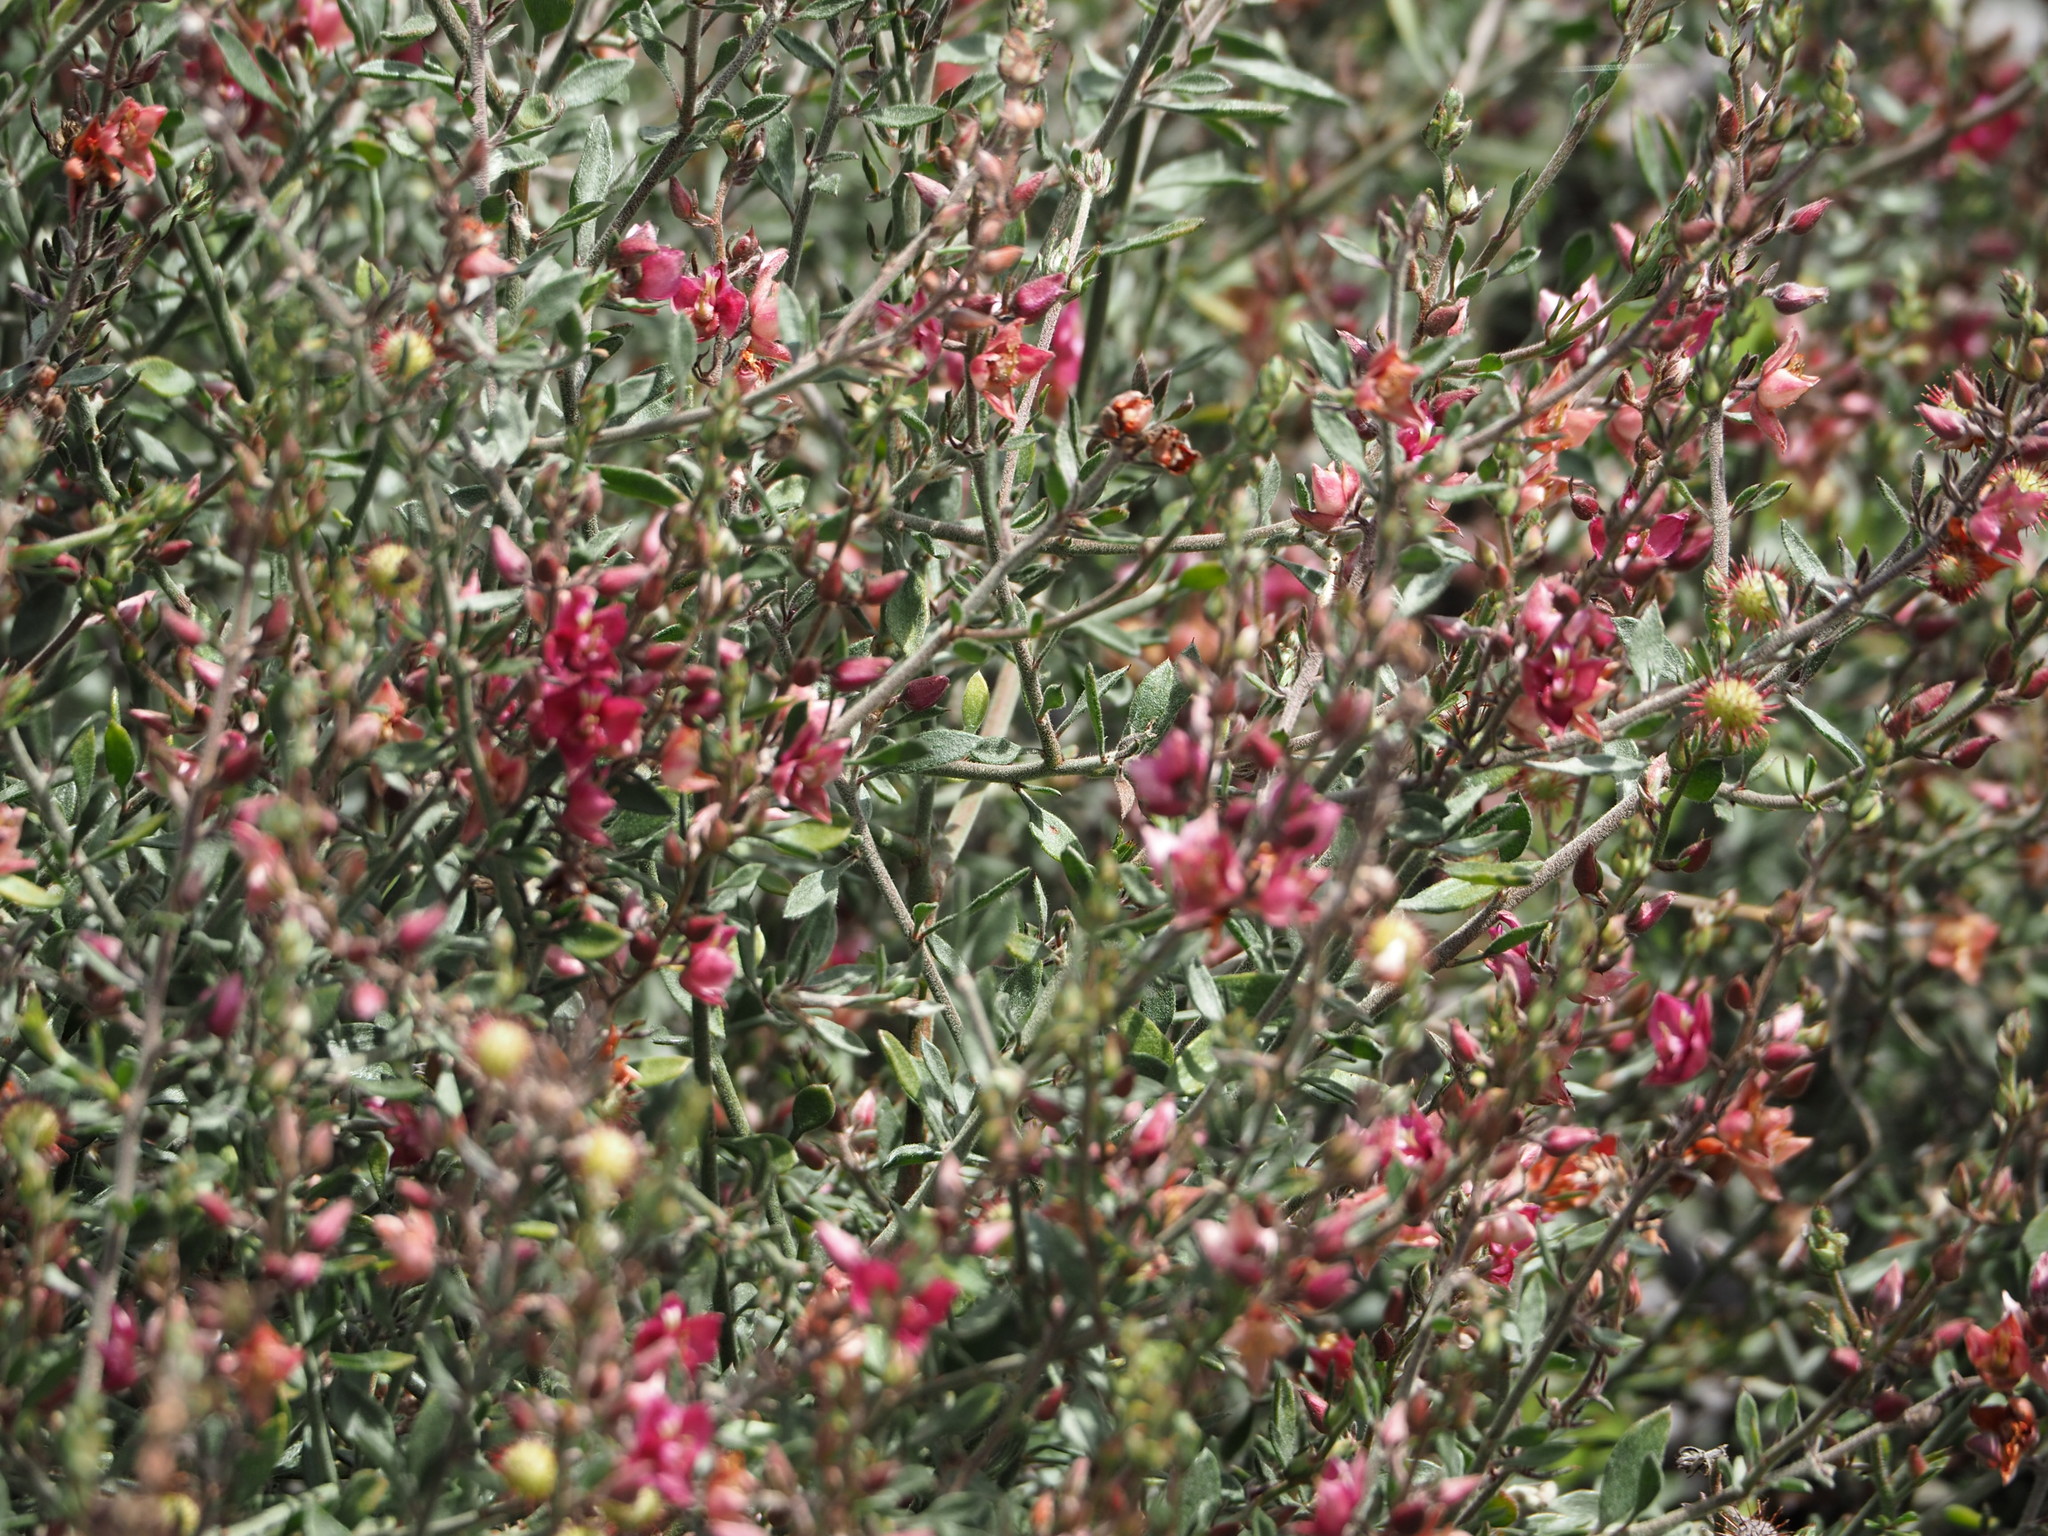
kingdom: Plantae
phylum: Tracheophyta
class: Magnoliopsida
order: Zygophyllales
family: Krameriaceae
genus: Krameria
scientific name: Krameria ixine
